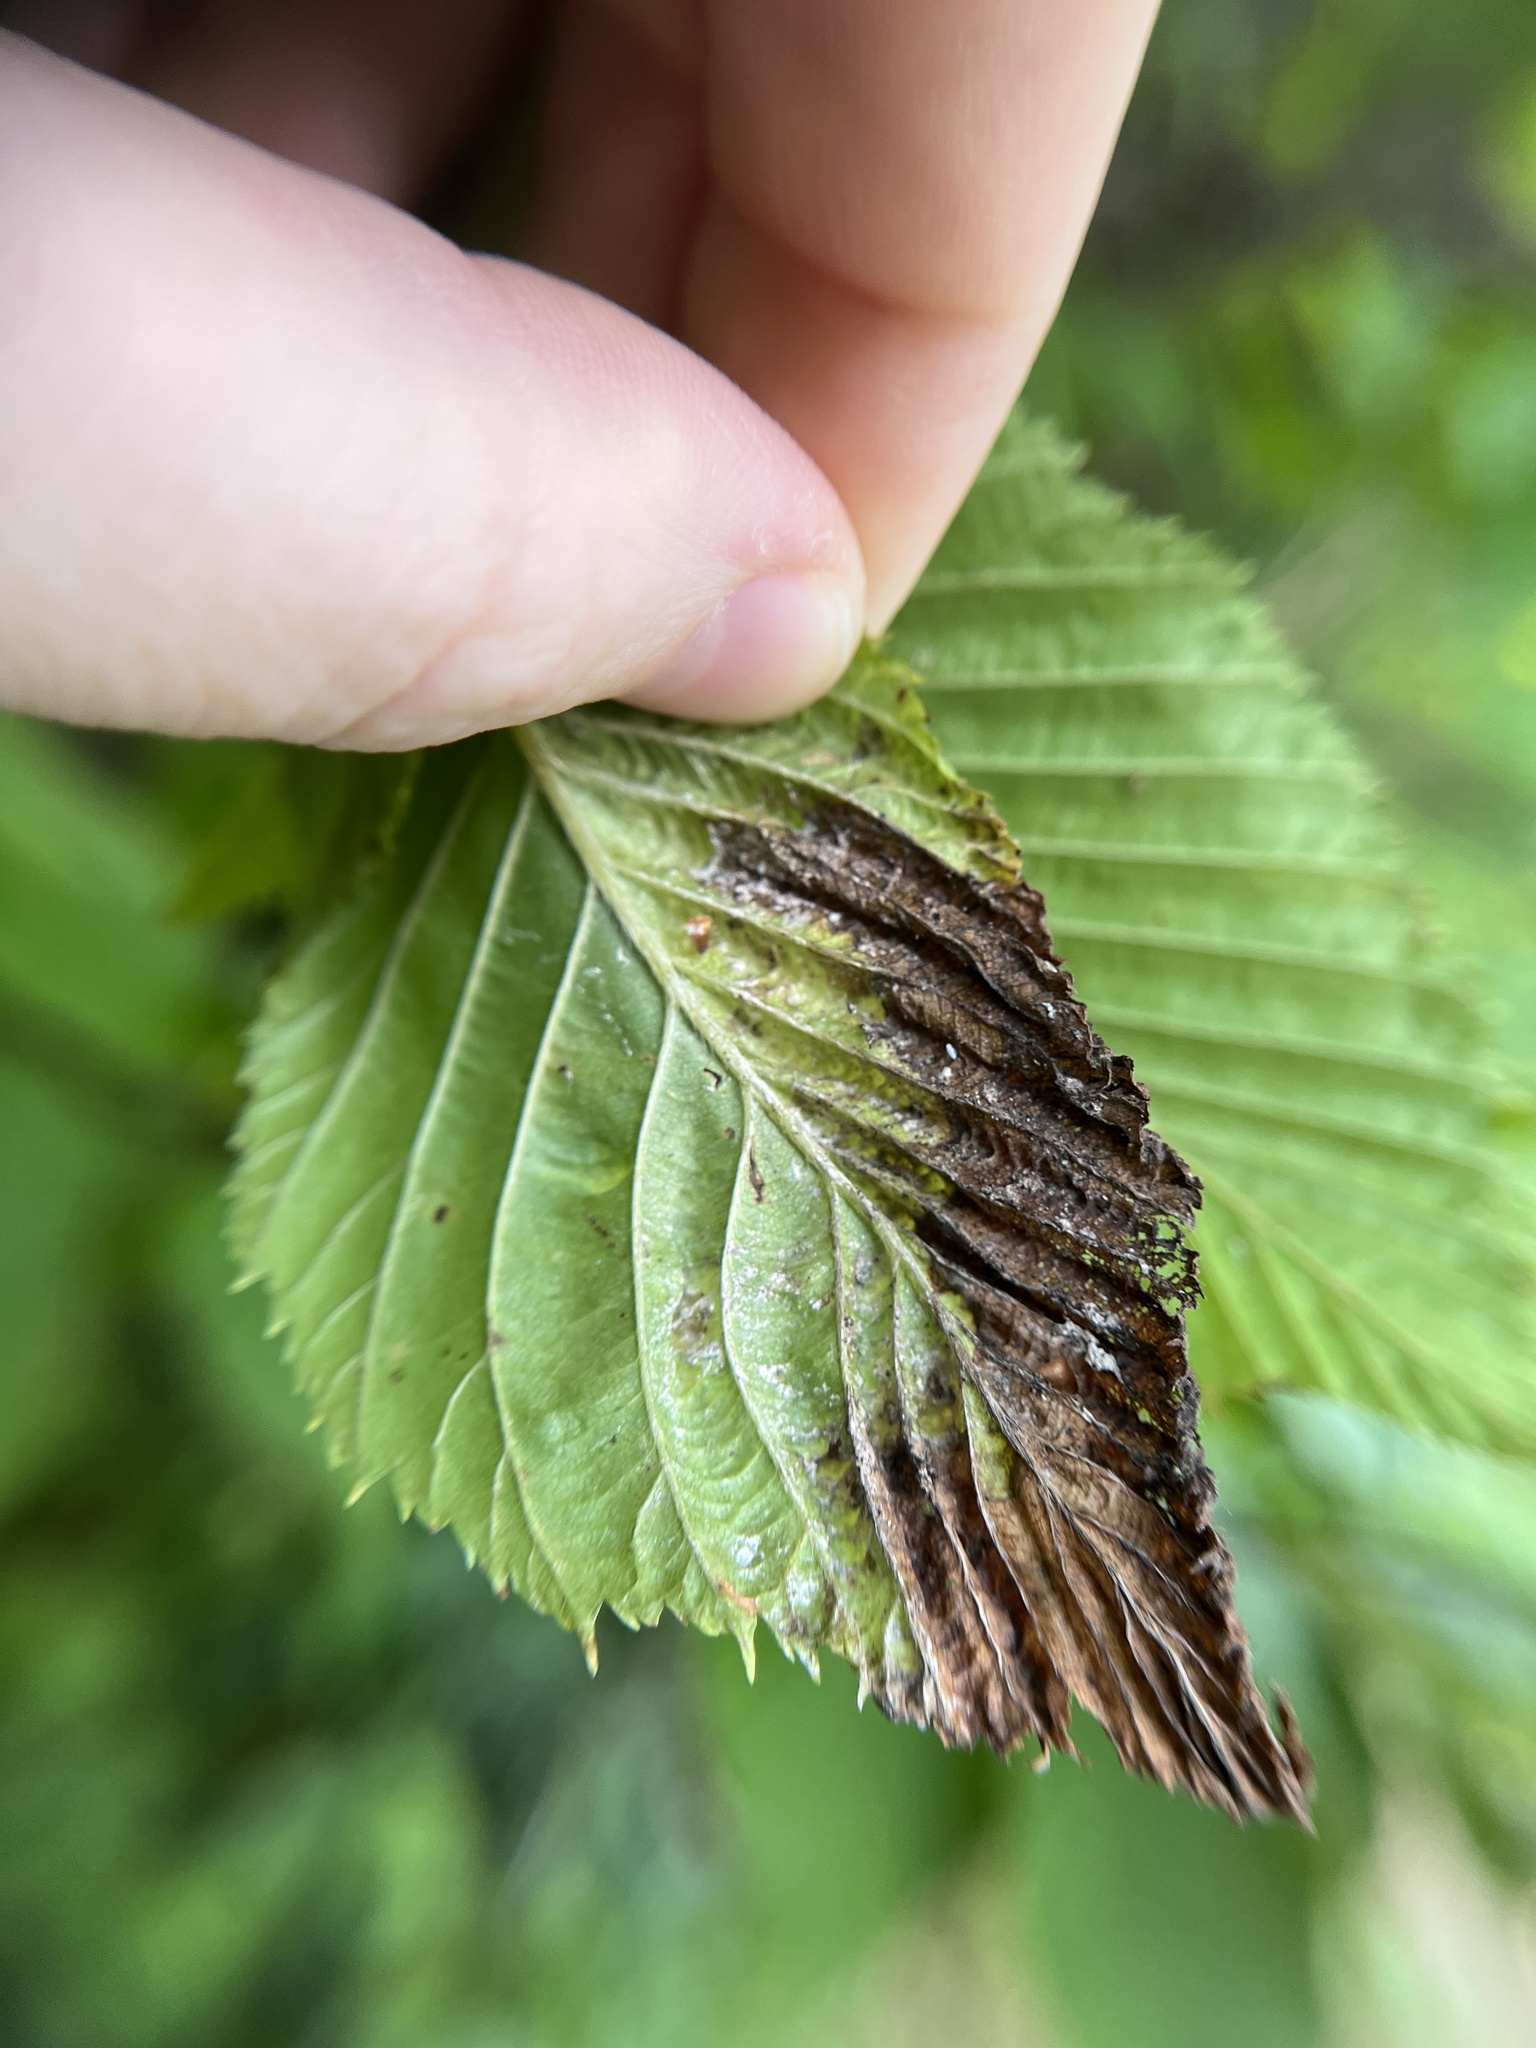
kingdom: Animalia
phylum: Arthropoda
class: Insecta
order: Hemiptera
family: Aphididae
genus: Hamamelistes
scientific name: Hamamelistes spinosus
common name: Witch hazel gall aphid
